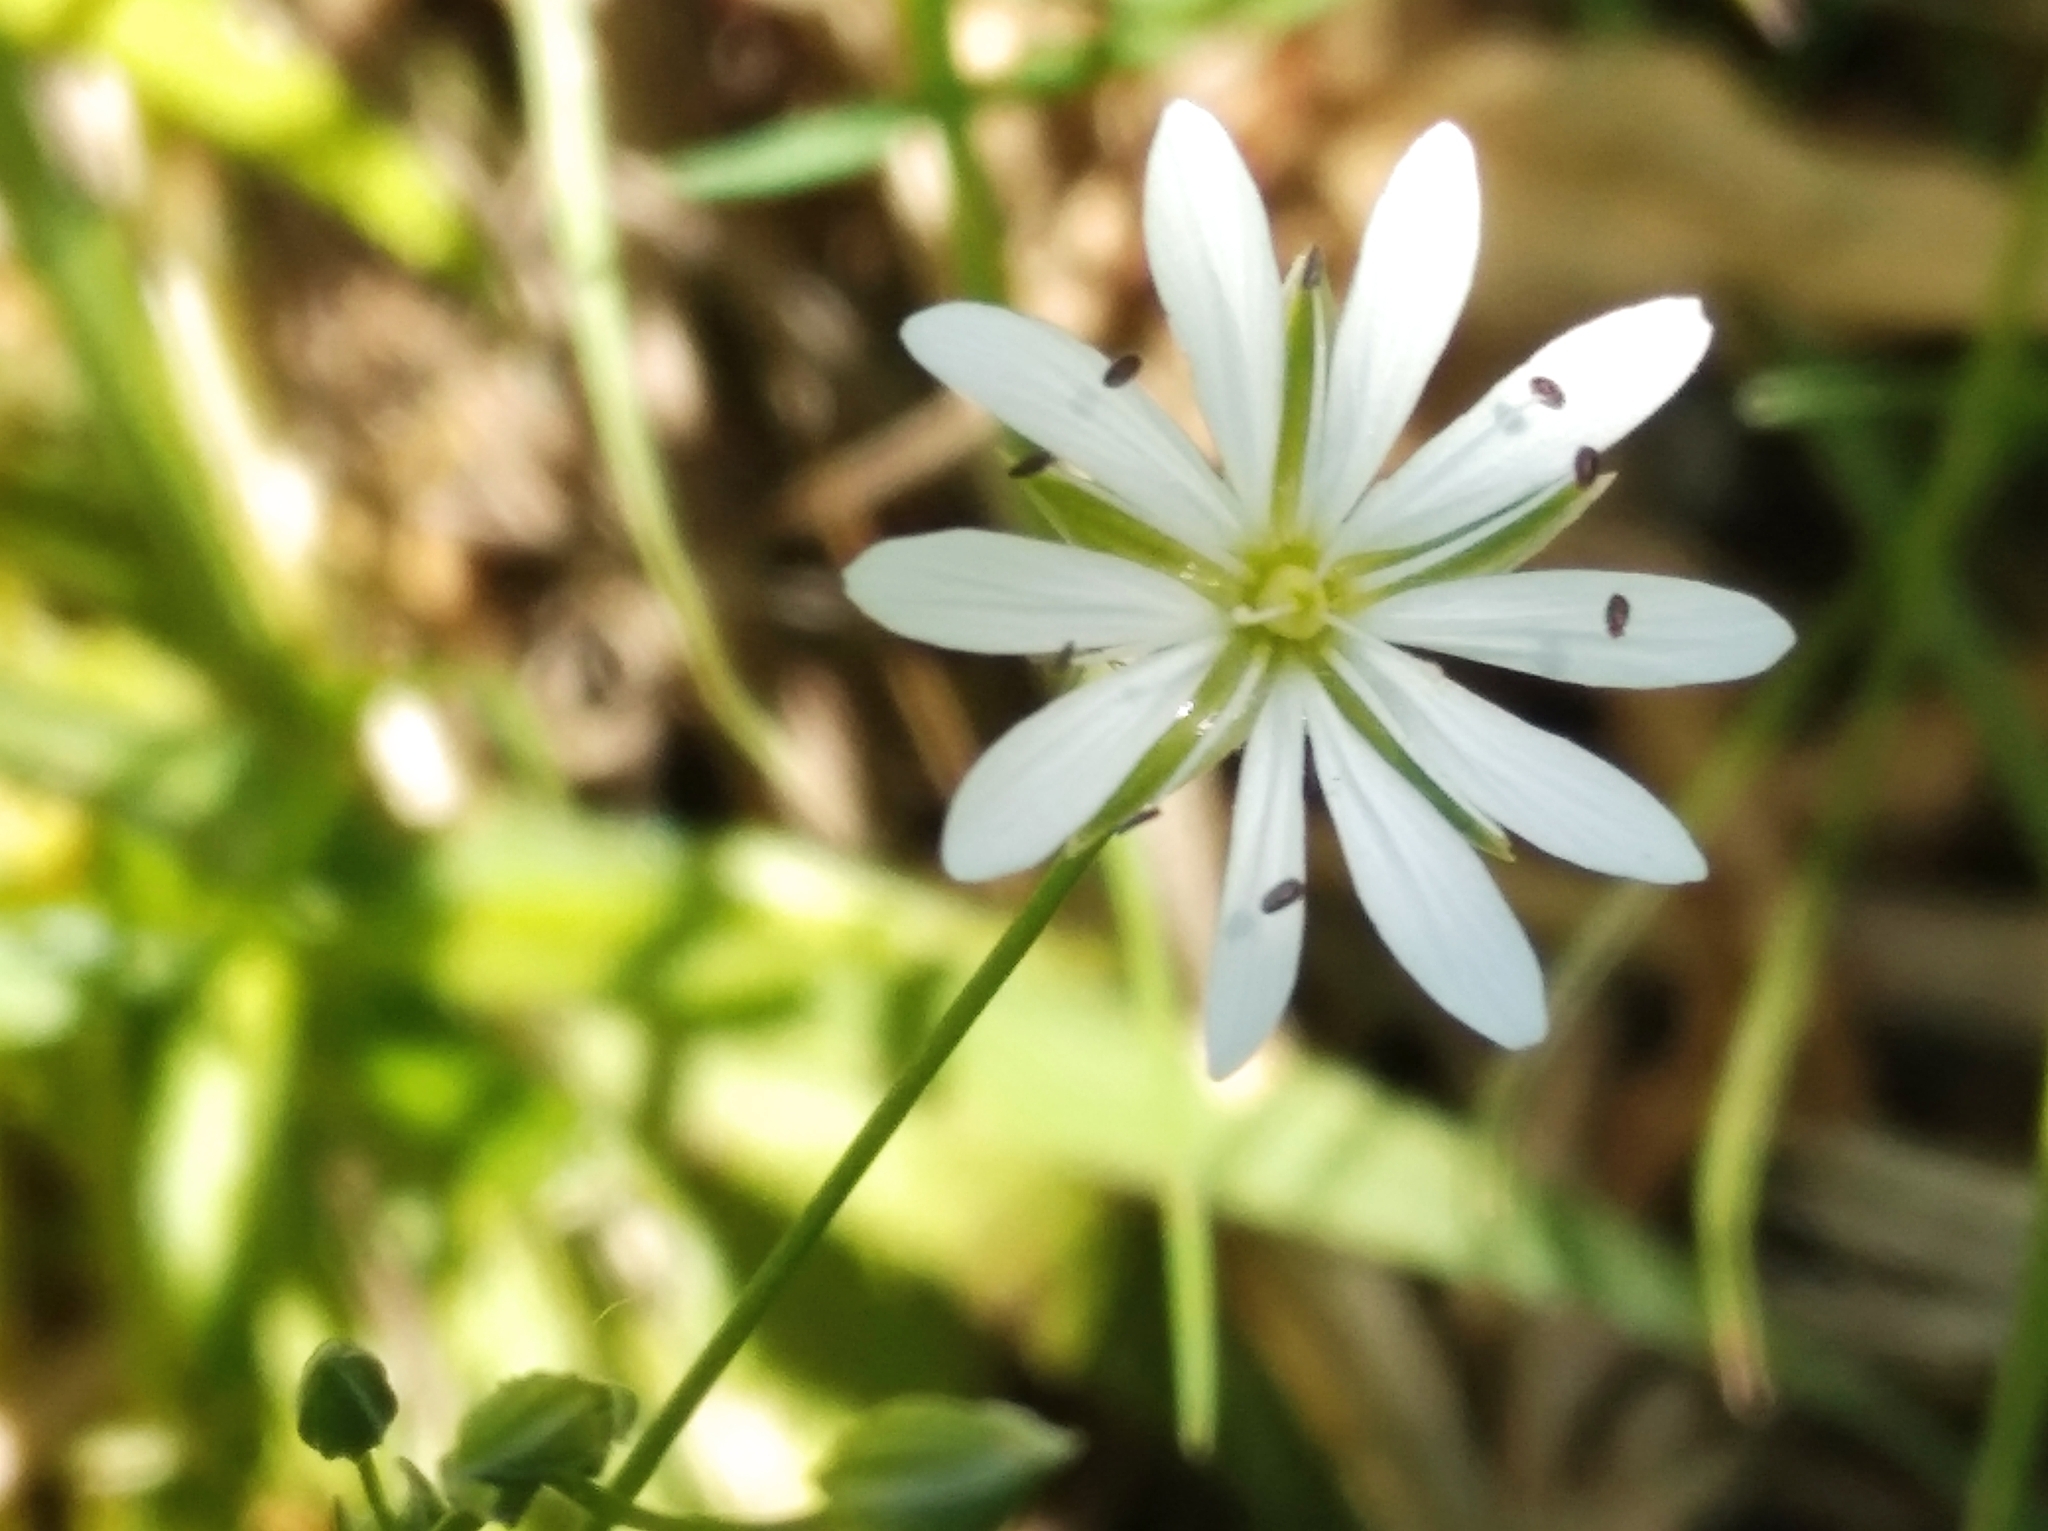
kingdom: Plantae
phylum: Tracheophyta
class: Magnoliopsida
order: Caryophyllales
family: Caryophyllaceae
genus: Stellaria
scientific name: Stellaria graminea
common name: Grass-like starwort
